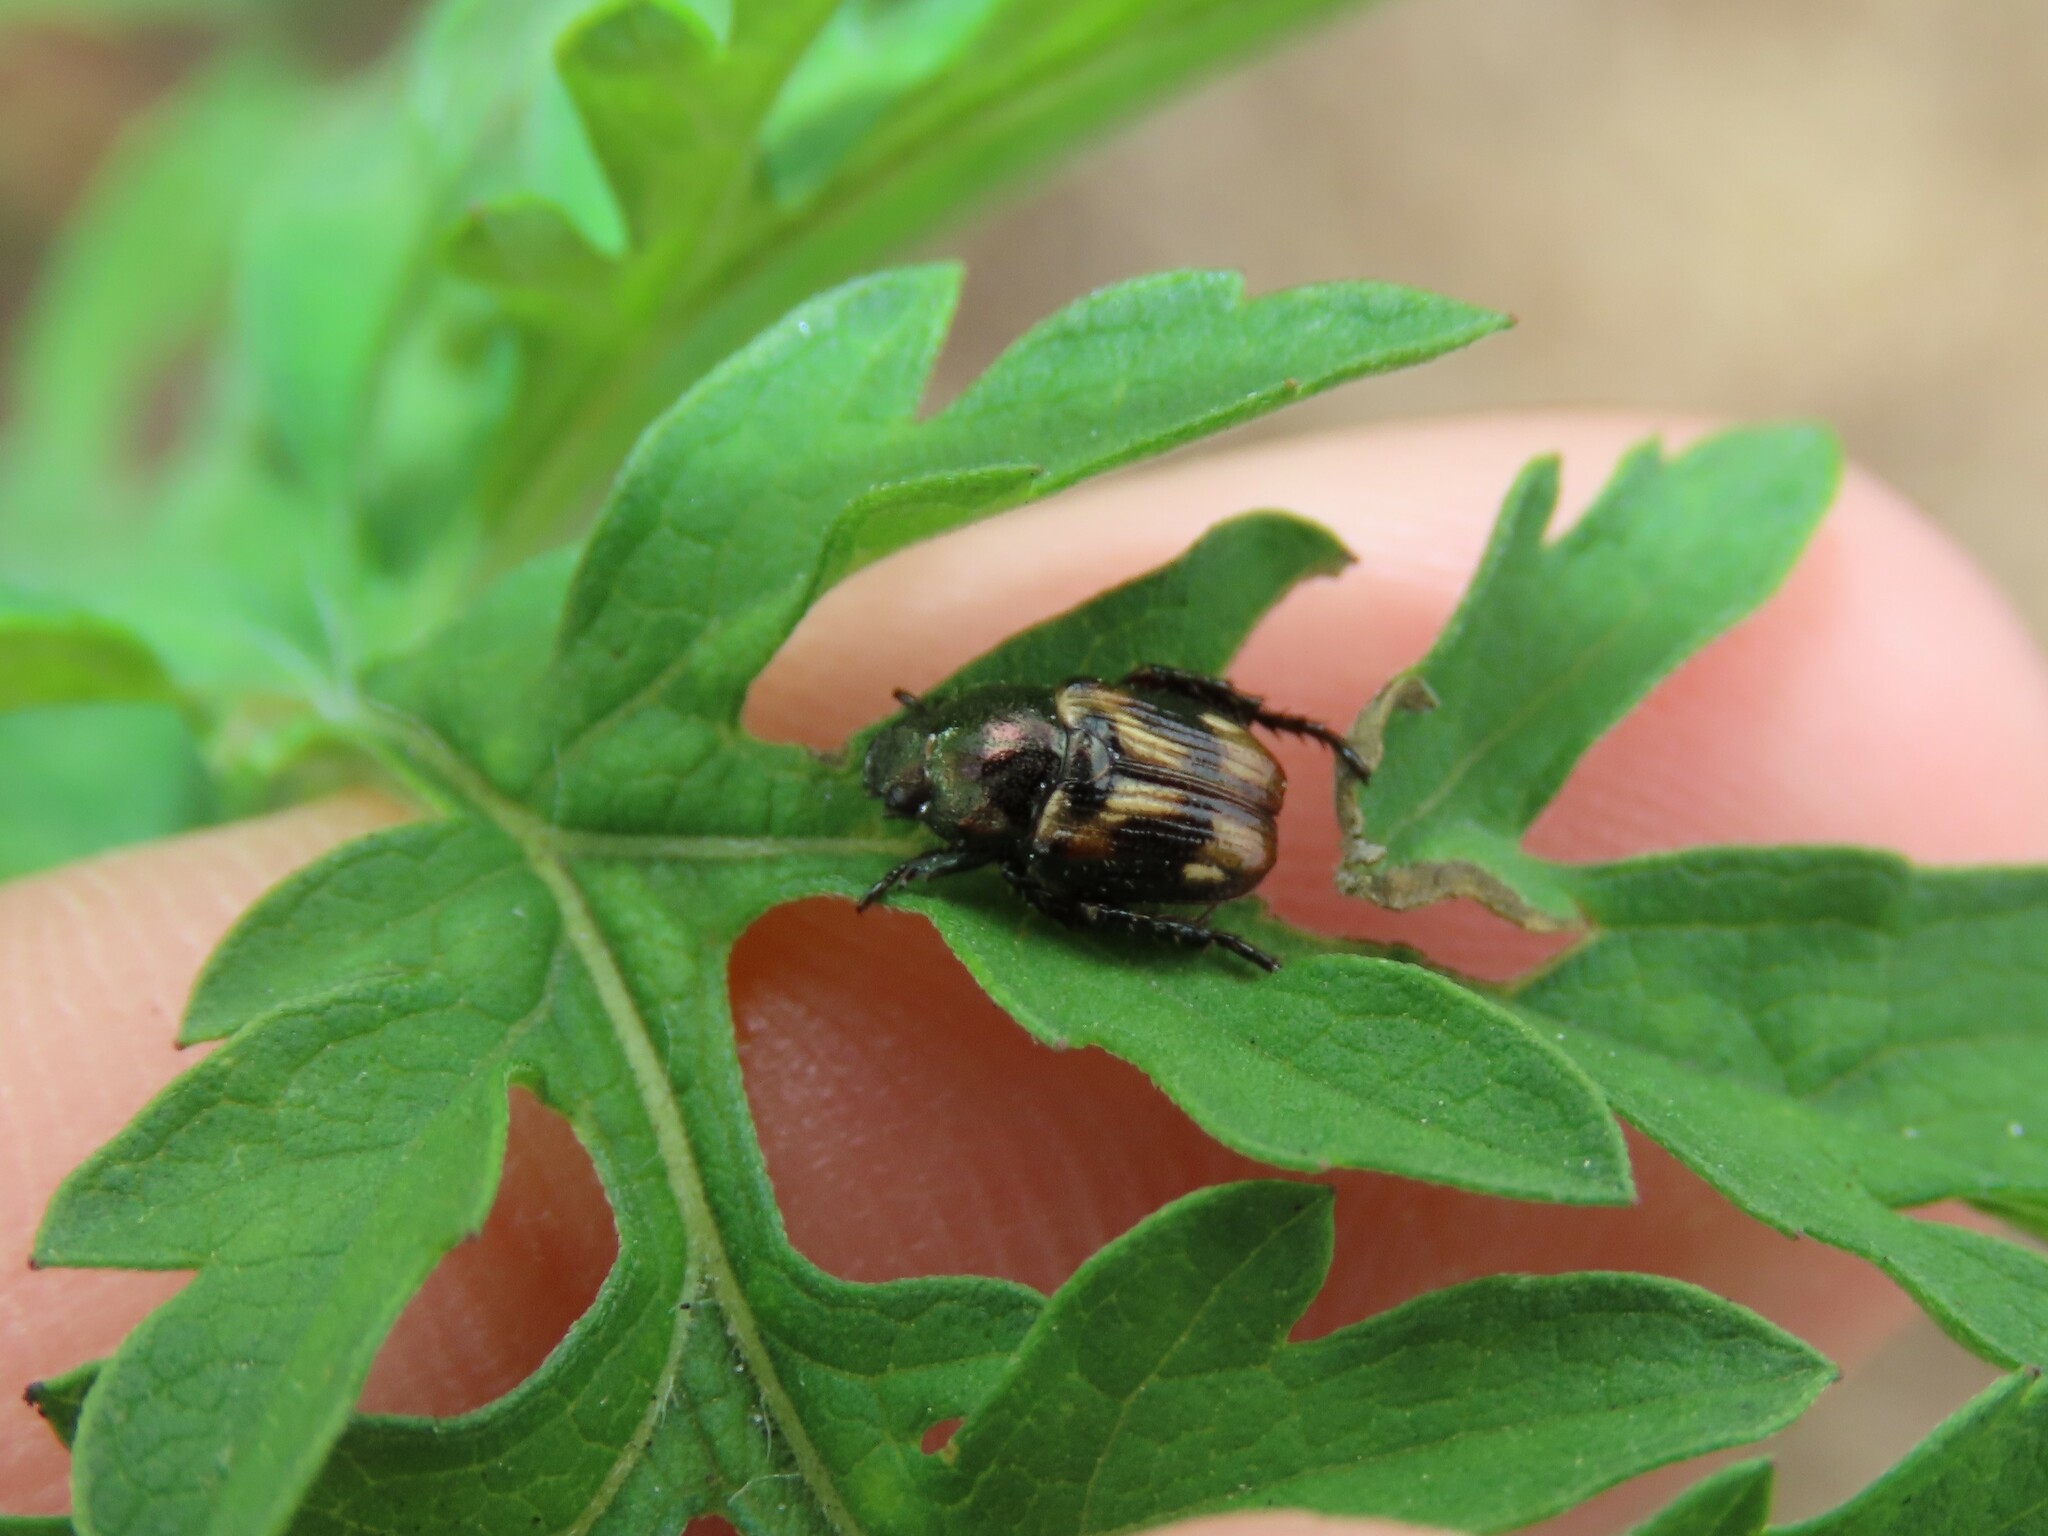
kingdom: Animalia
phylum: Arthropoda
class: Insecta
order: Coleoptera
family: Scarabaeidae
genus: Strigoderma
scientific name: Strigoderma pygmaea
